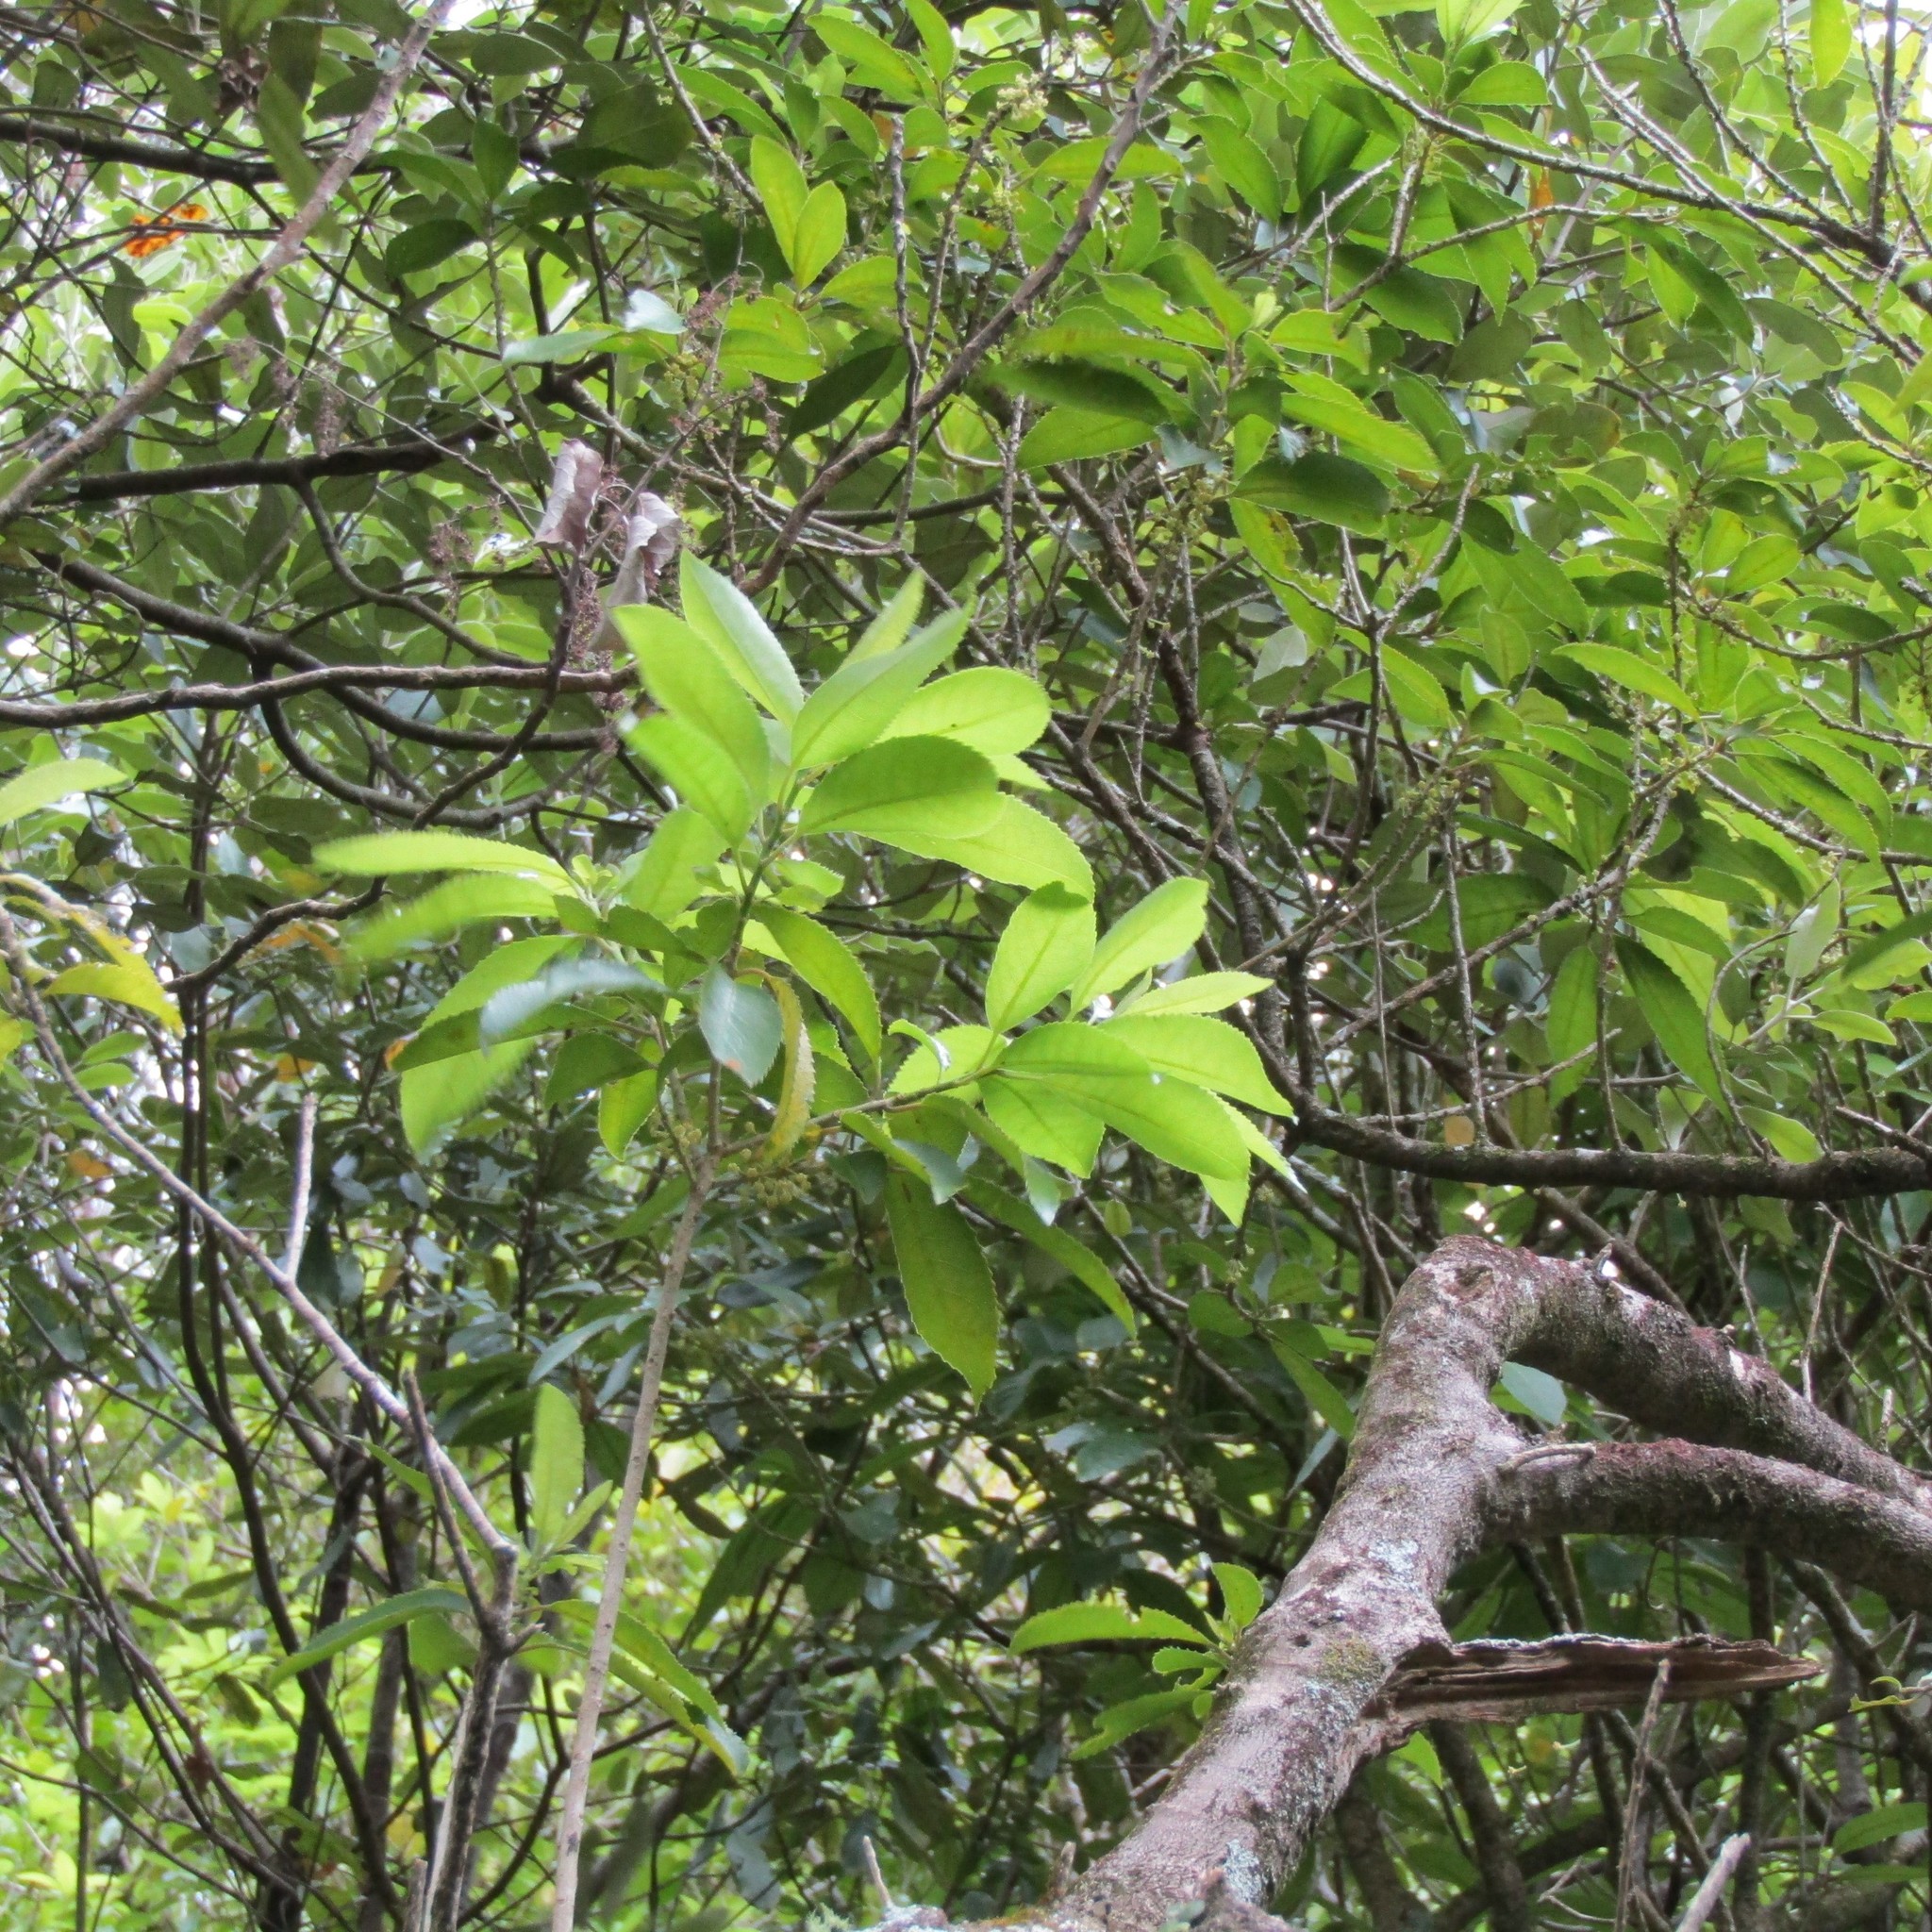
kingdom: Plantae
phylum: Tracheophyta
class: Magnoliopsida
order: Malpighiales
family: Violaceae
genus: Melicytus
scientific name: Melicytus ramiflorus
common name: Mahoe
